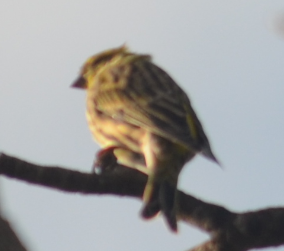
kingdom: Animalia
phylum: Chordata
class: Aves
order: Passeriformes
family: Fringillidae
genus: Serinus
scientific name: Serinus serinus
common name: European serin
